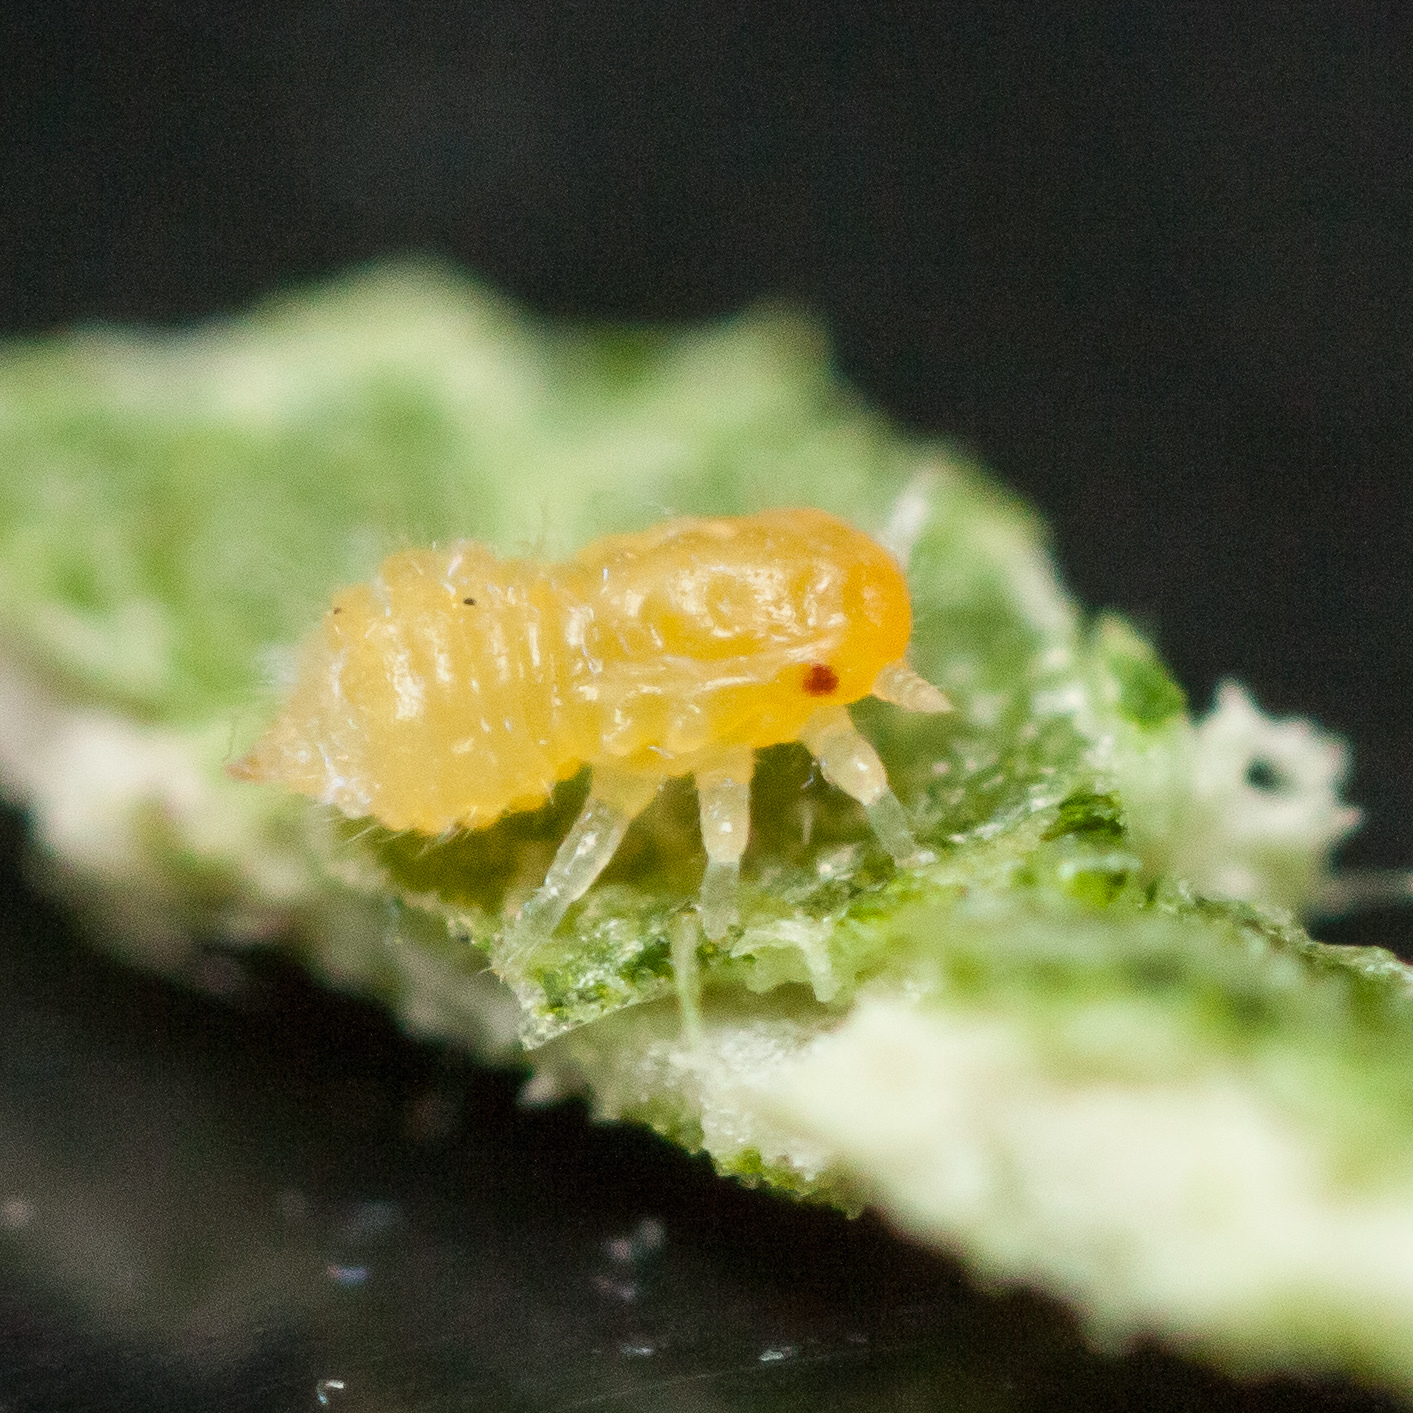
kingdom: Animalia
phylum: Arthropoda
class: Insecta
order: Hemiptera
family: Aphalaridae
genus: Pachypsylla
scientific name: Pachypsylla celtidisvesicula
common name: Hackberry blister gall psyllid
